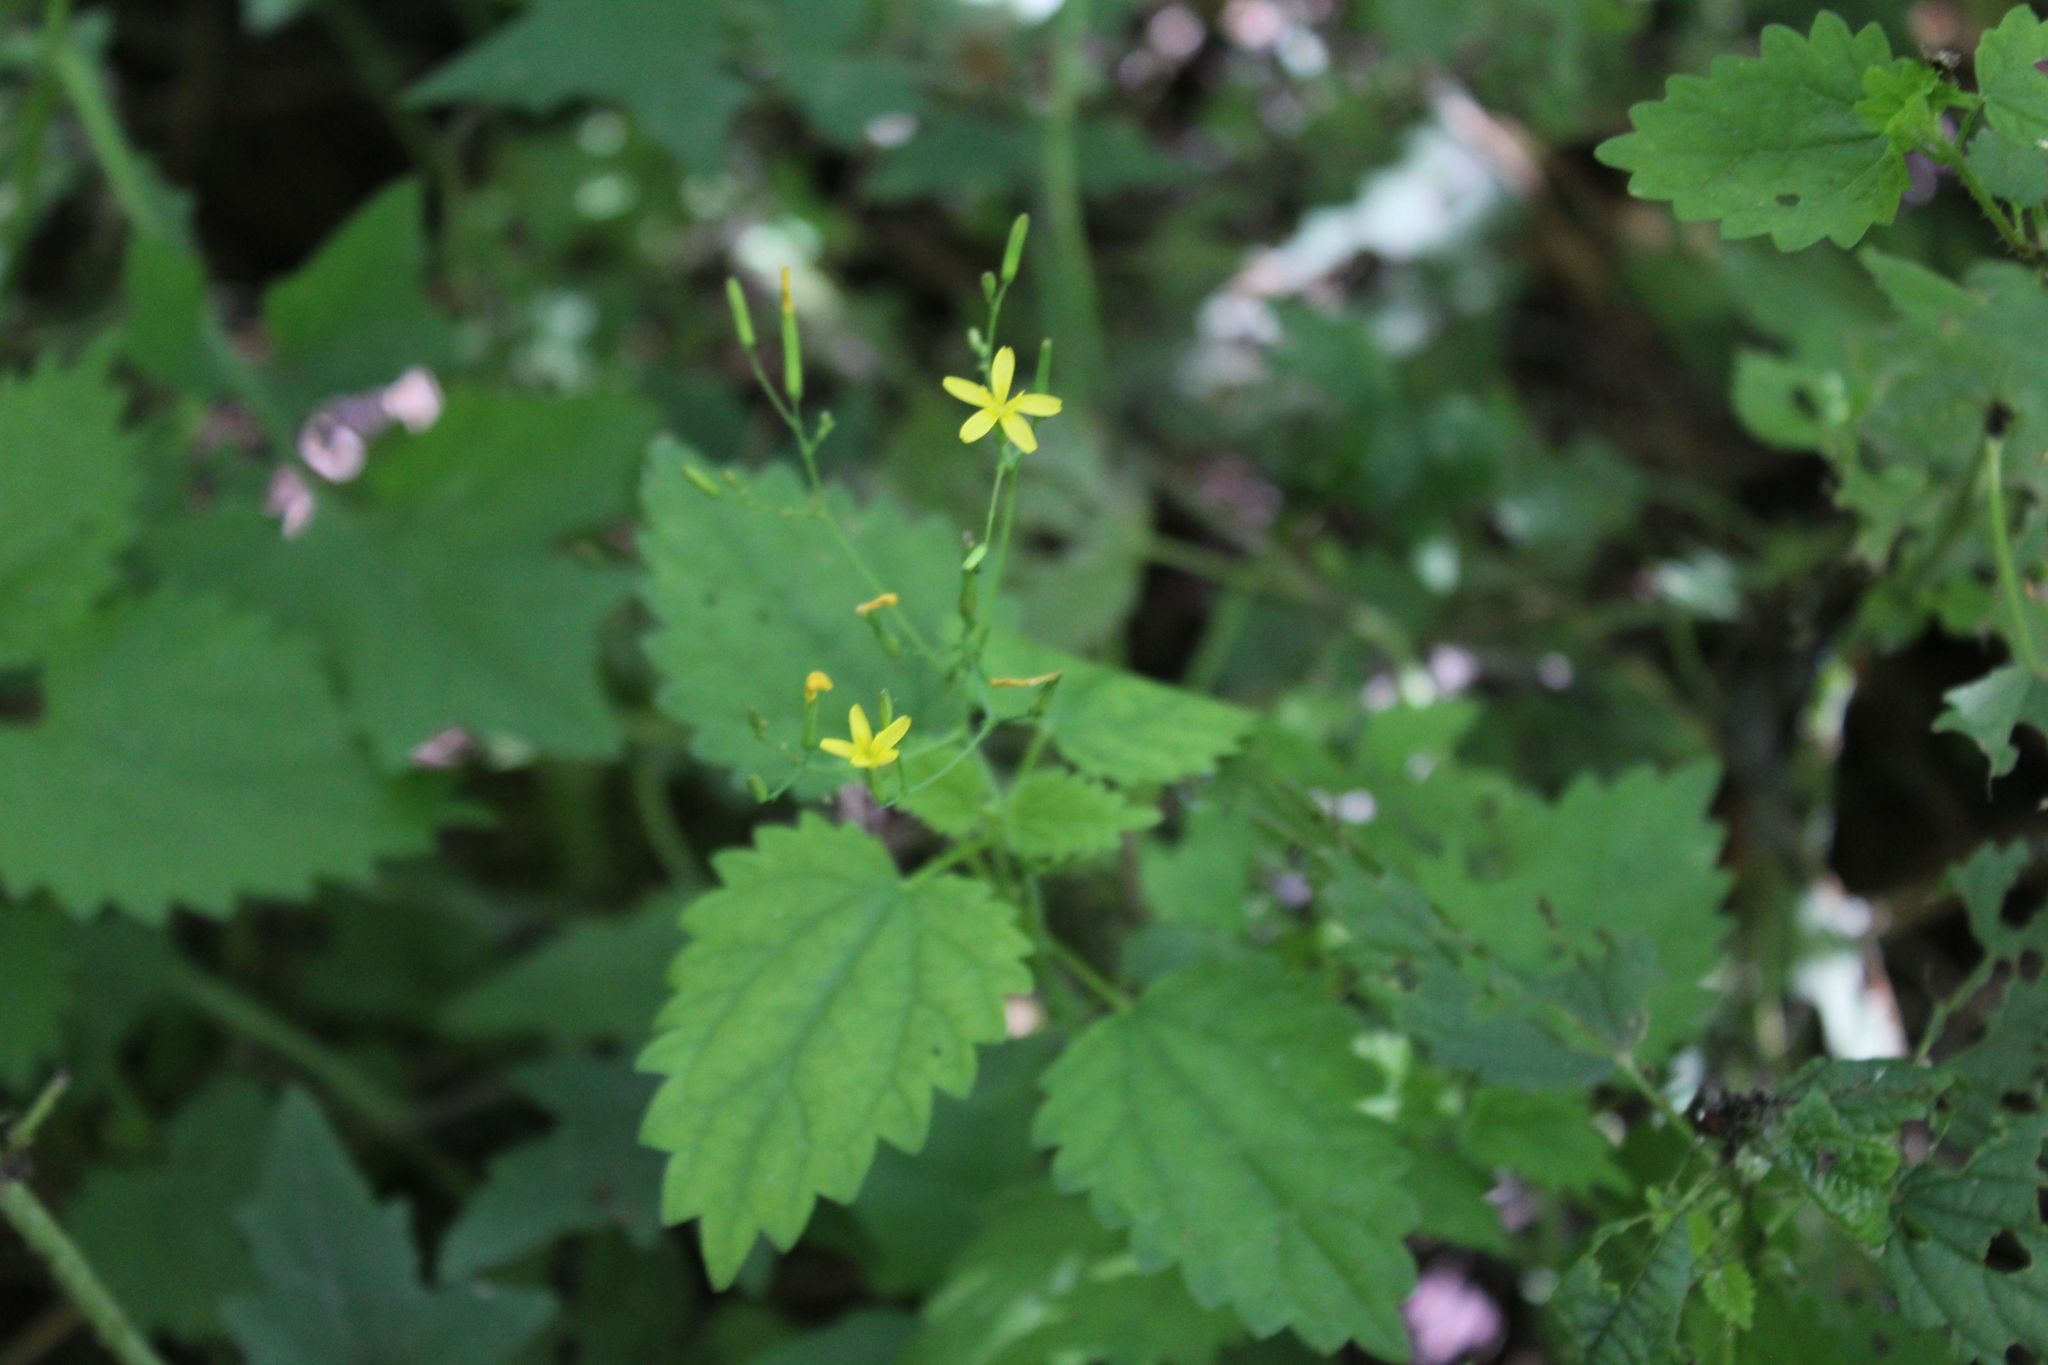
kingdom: Plantae
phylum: Tracheophyta
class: Magnoliopsida
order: Asterales
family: Asteraceae
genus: Mycelis
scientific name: Mycelis muralis
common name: Wall lettuce
